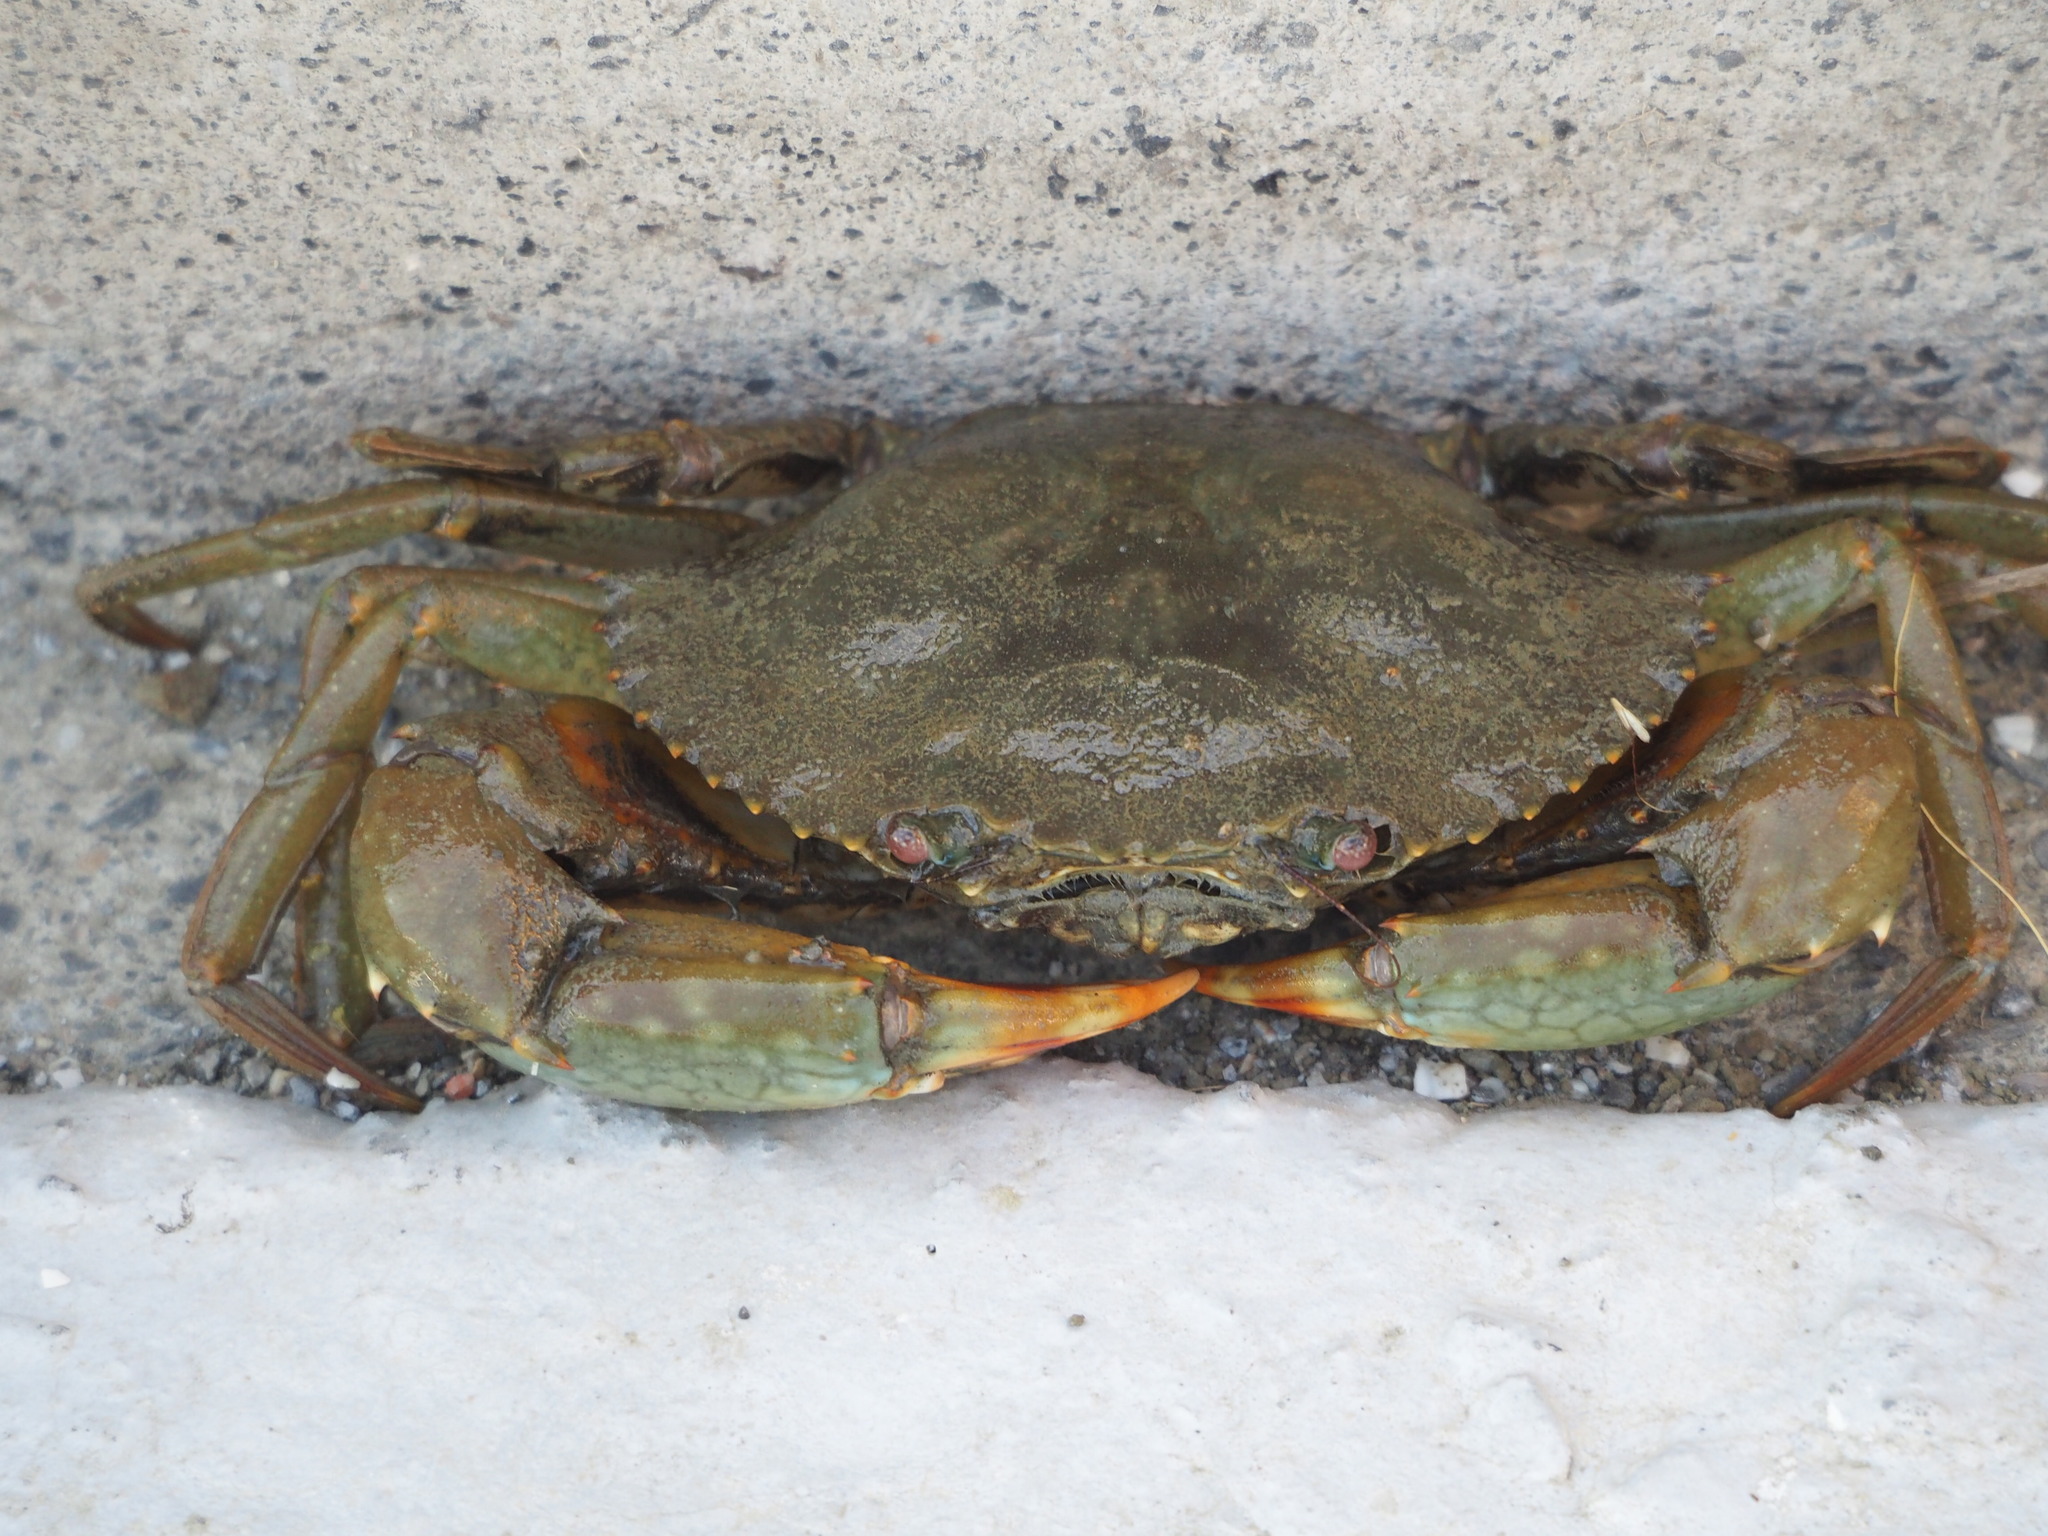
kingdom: Animalia
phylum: Arthropoda
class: Malacostraca
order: Decapoda
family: Portunidae
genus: Scylla
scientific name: Scylla serrata
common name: Giant mud crab
